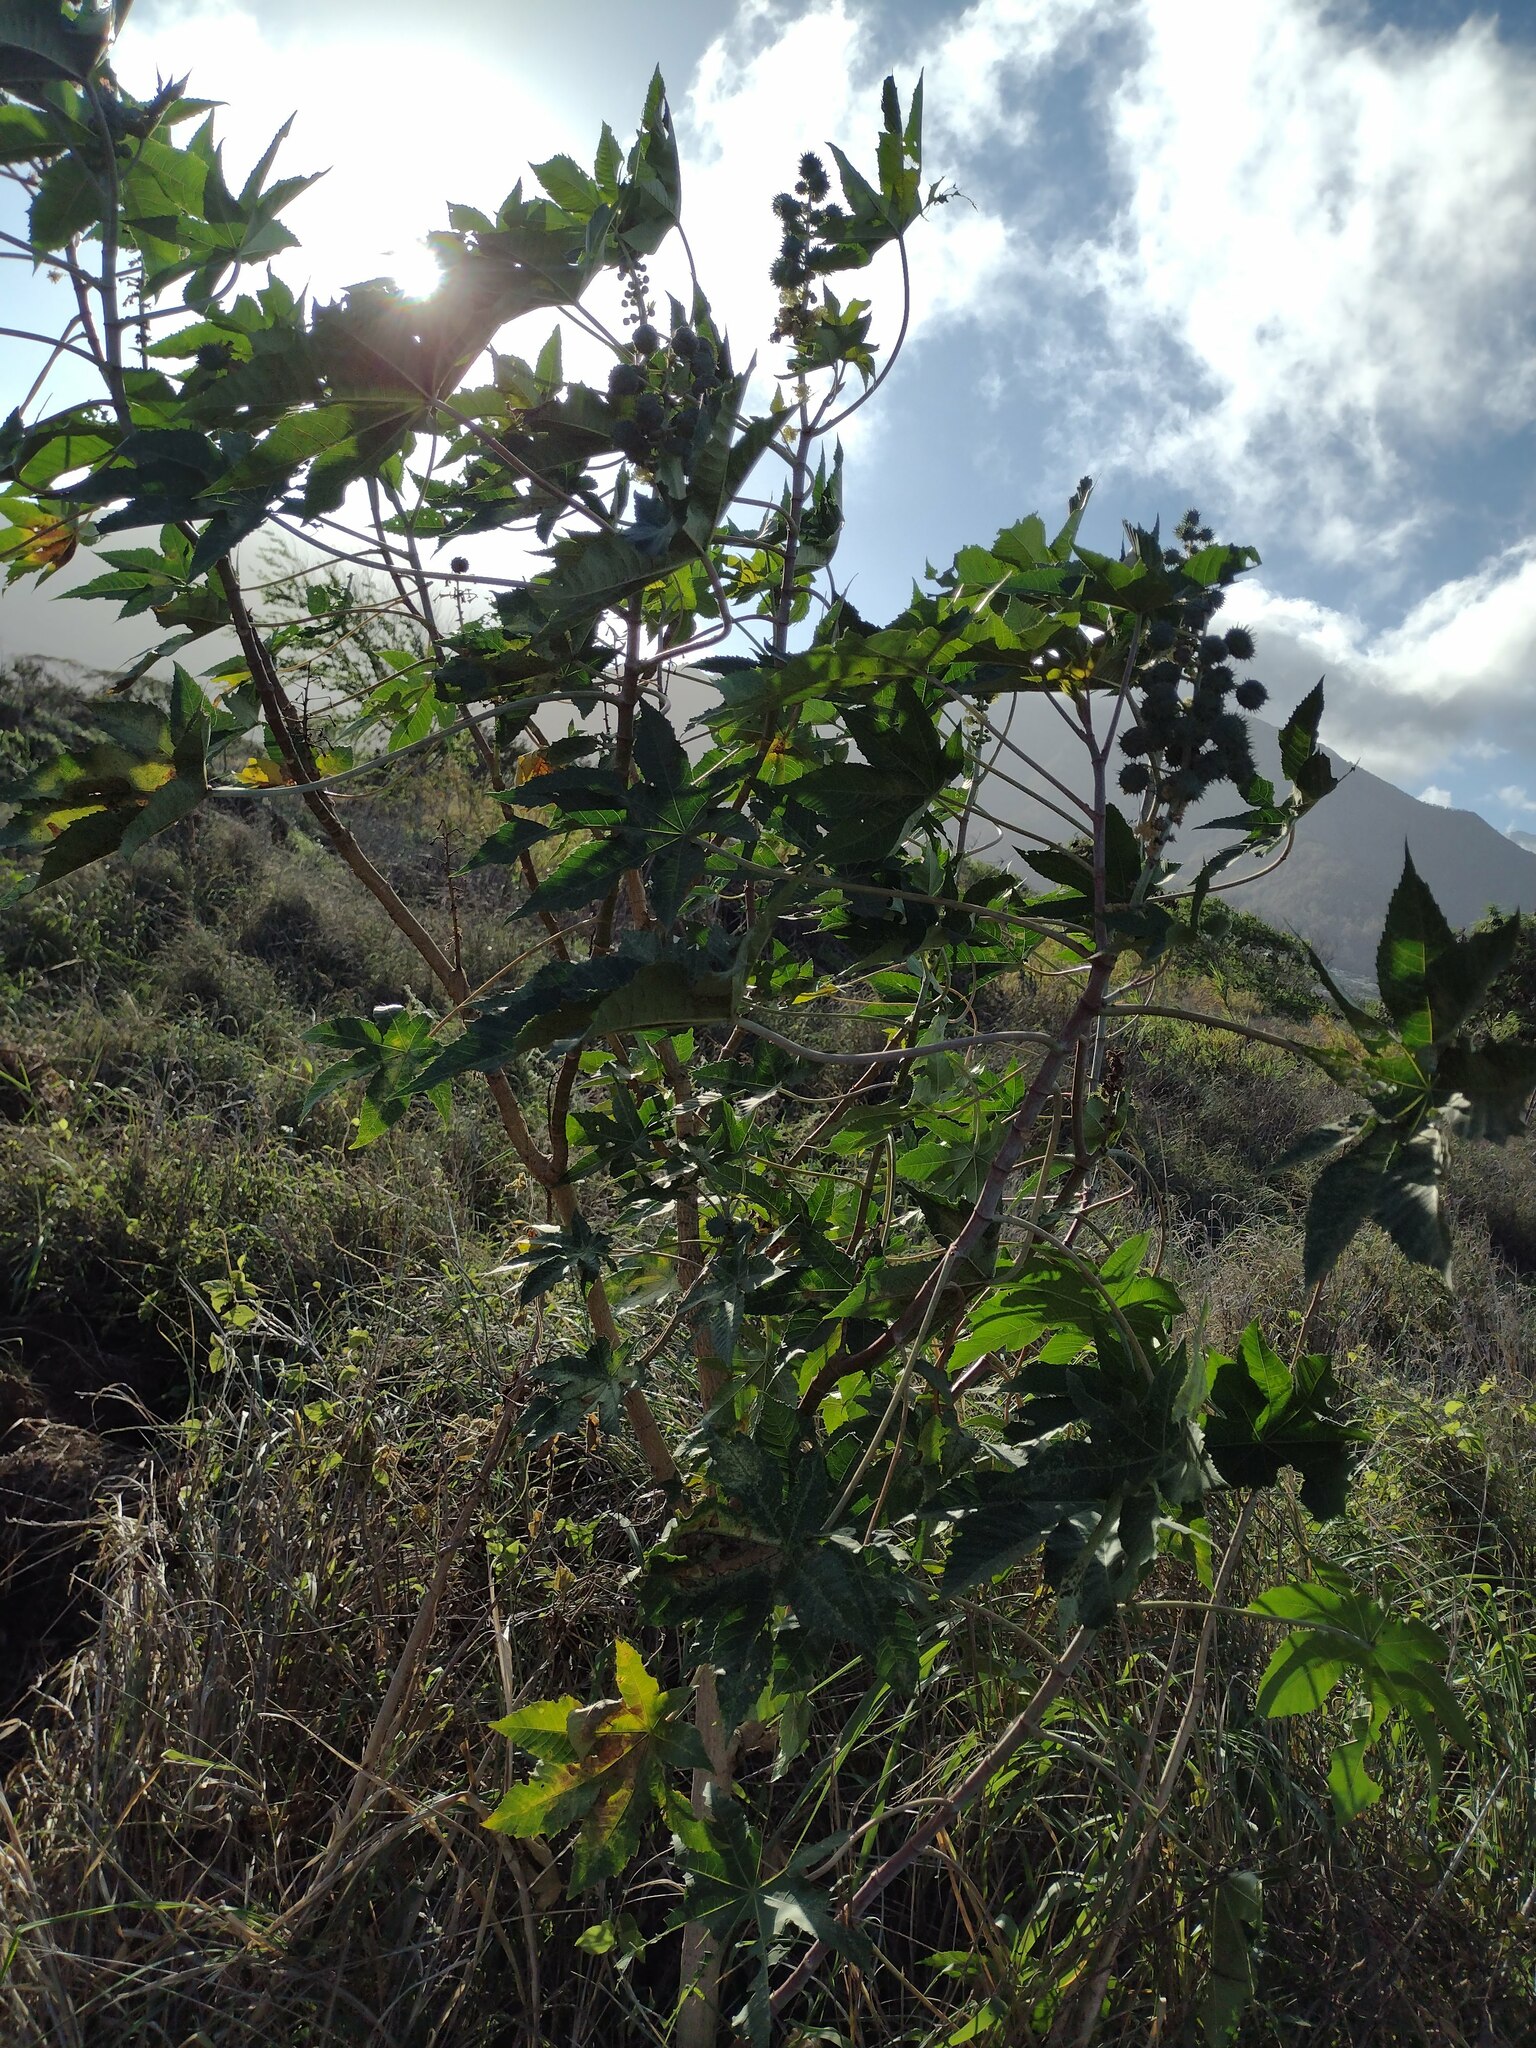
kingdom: Plantae
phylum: Tracheophyta
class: Magnoliopsida
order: Malpighiales
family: Euphorbiaceae
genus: Ricinus
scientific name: Ricinus communis
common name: Castor-oil-plant
